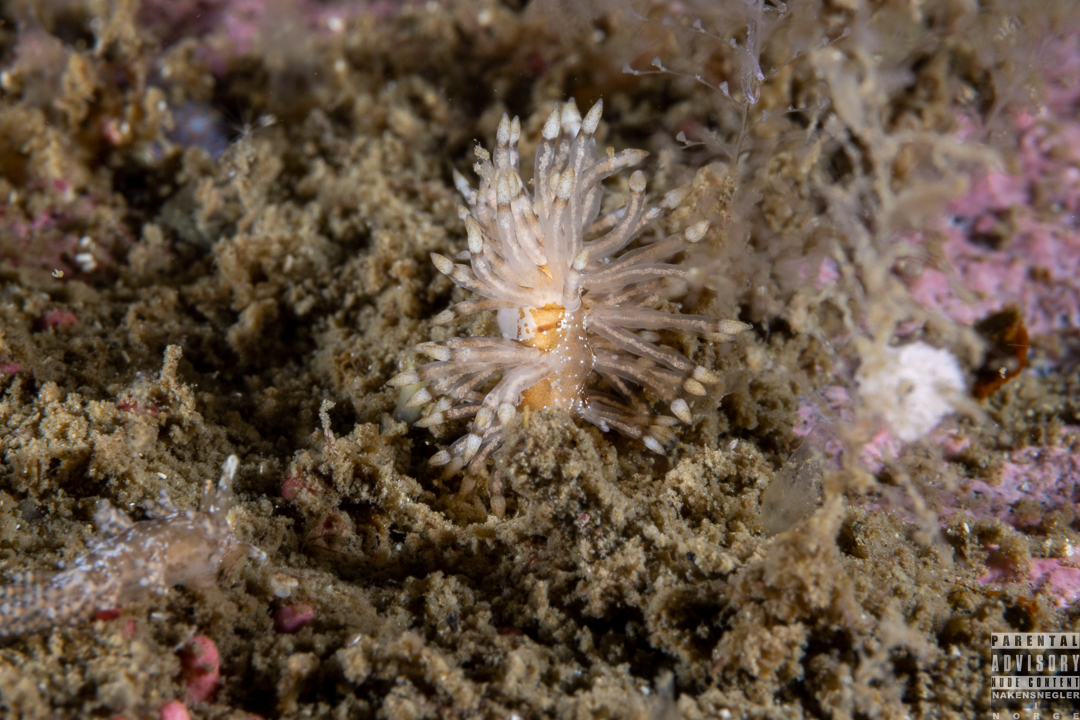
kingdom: Animalia
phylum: Mollusca
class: Gastropoda
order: Nudibranchia
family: Eubranchidae
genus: Eubranchus
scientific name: Eubranchus vittatus
